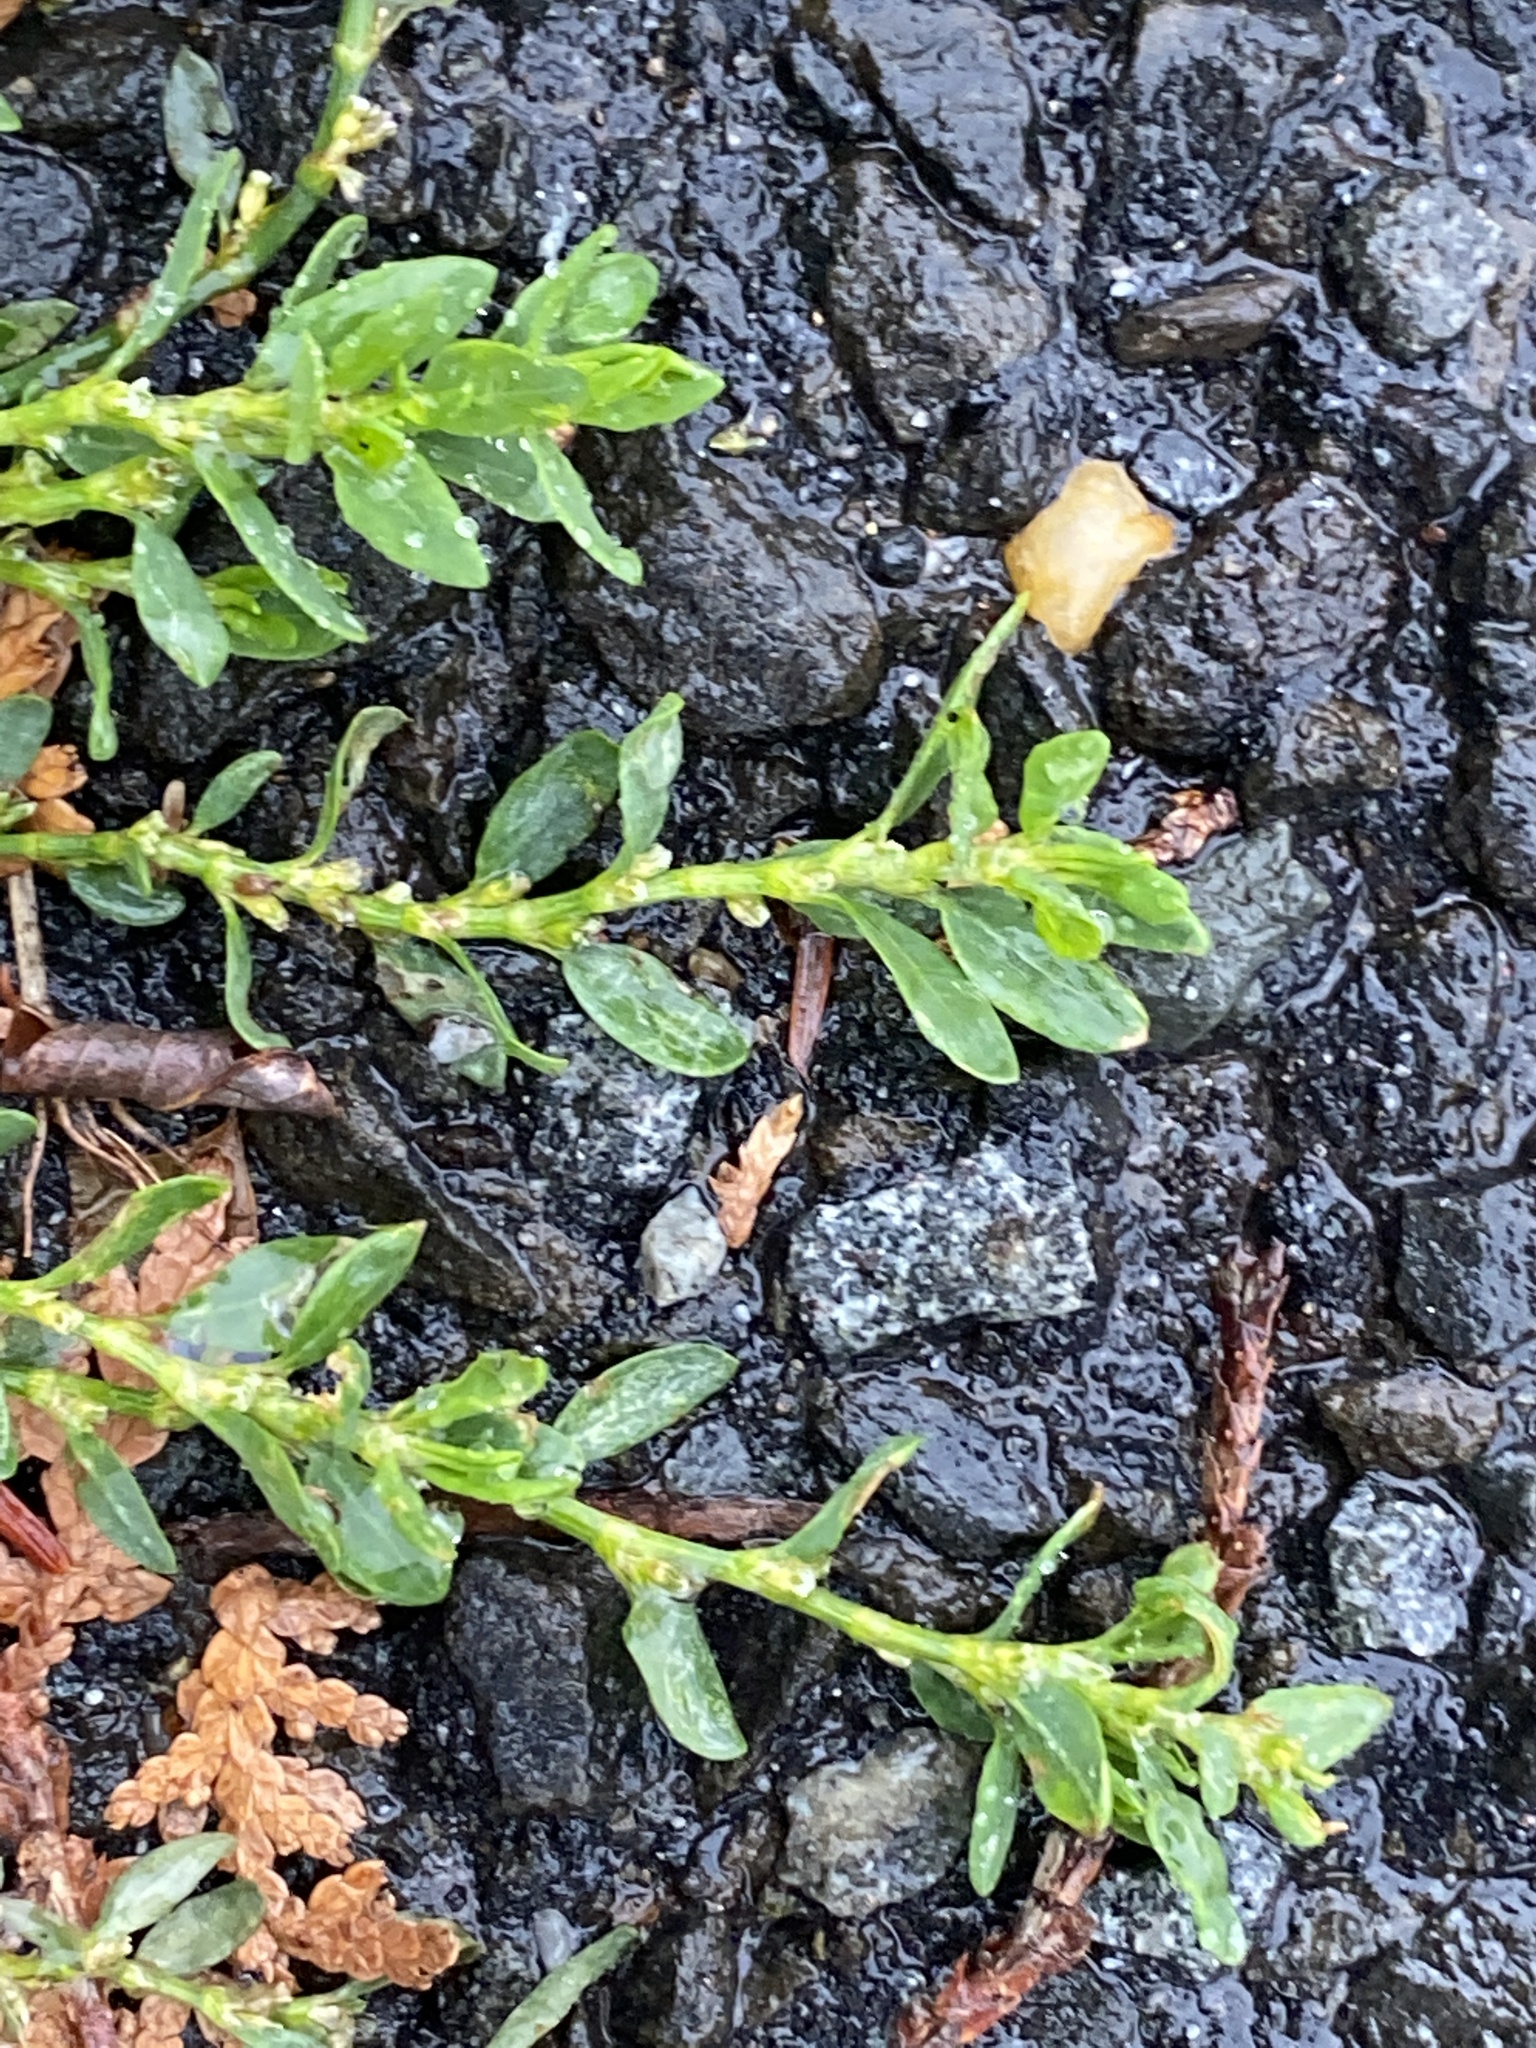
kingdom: Plantae
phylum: Tracheophyta
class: Magnoliopsida
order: Caryophyllales
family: Polygonaceae
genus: Polygonum
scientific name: Polygonum aviculare
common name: Prostrate knotweed
